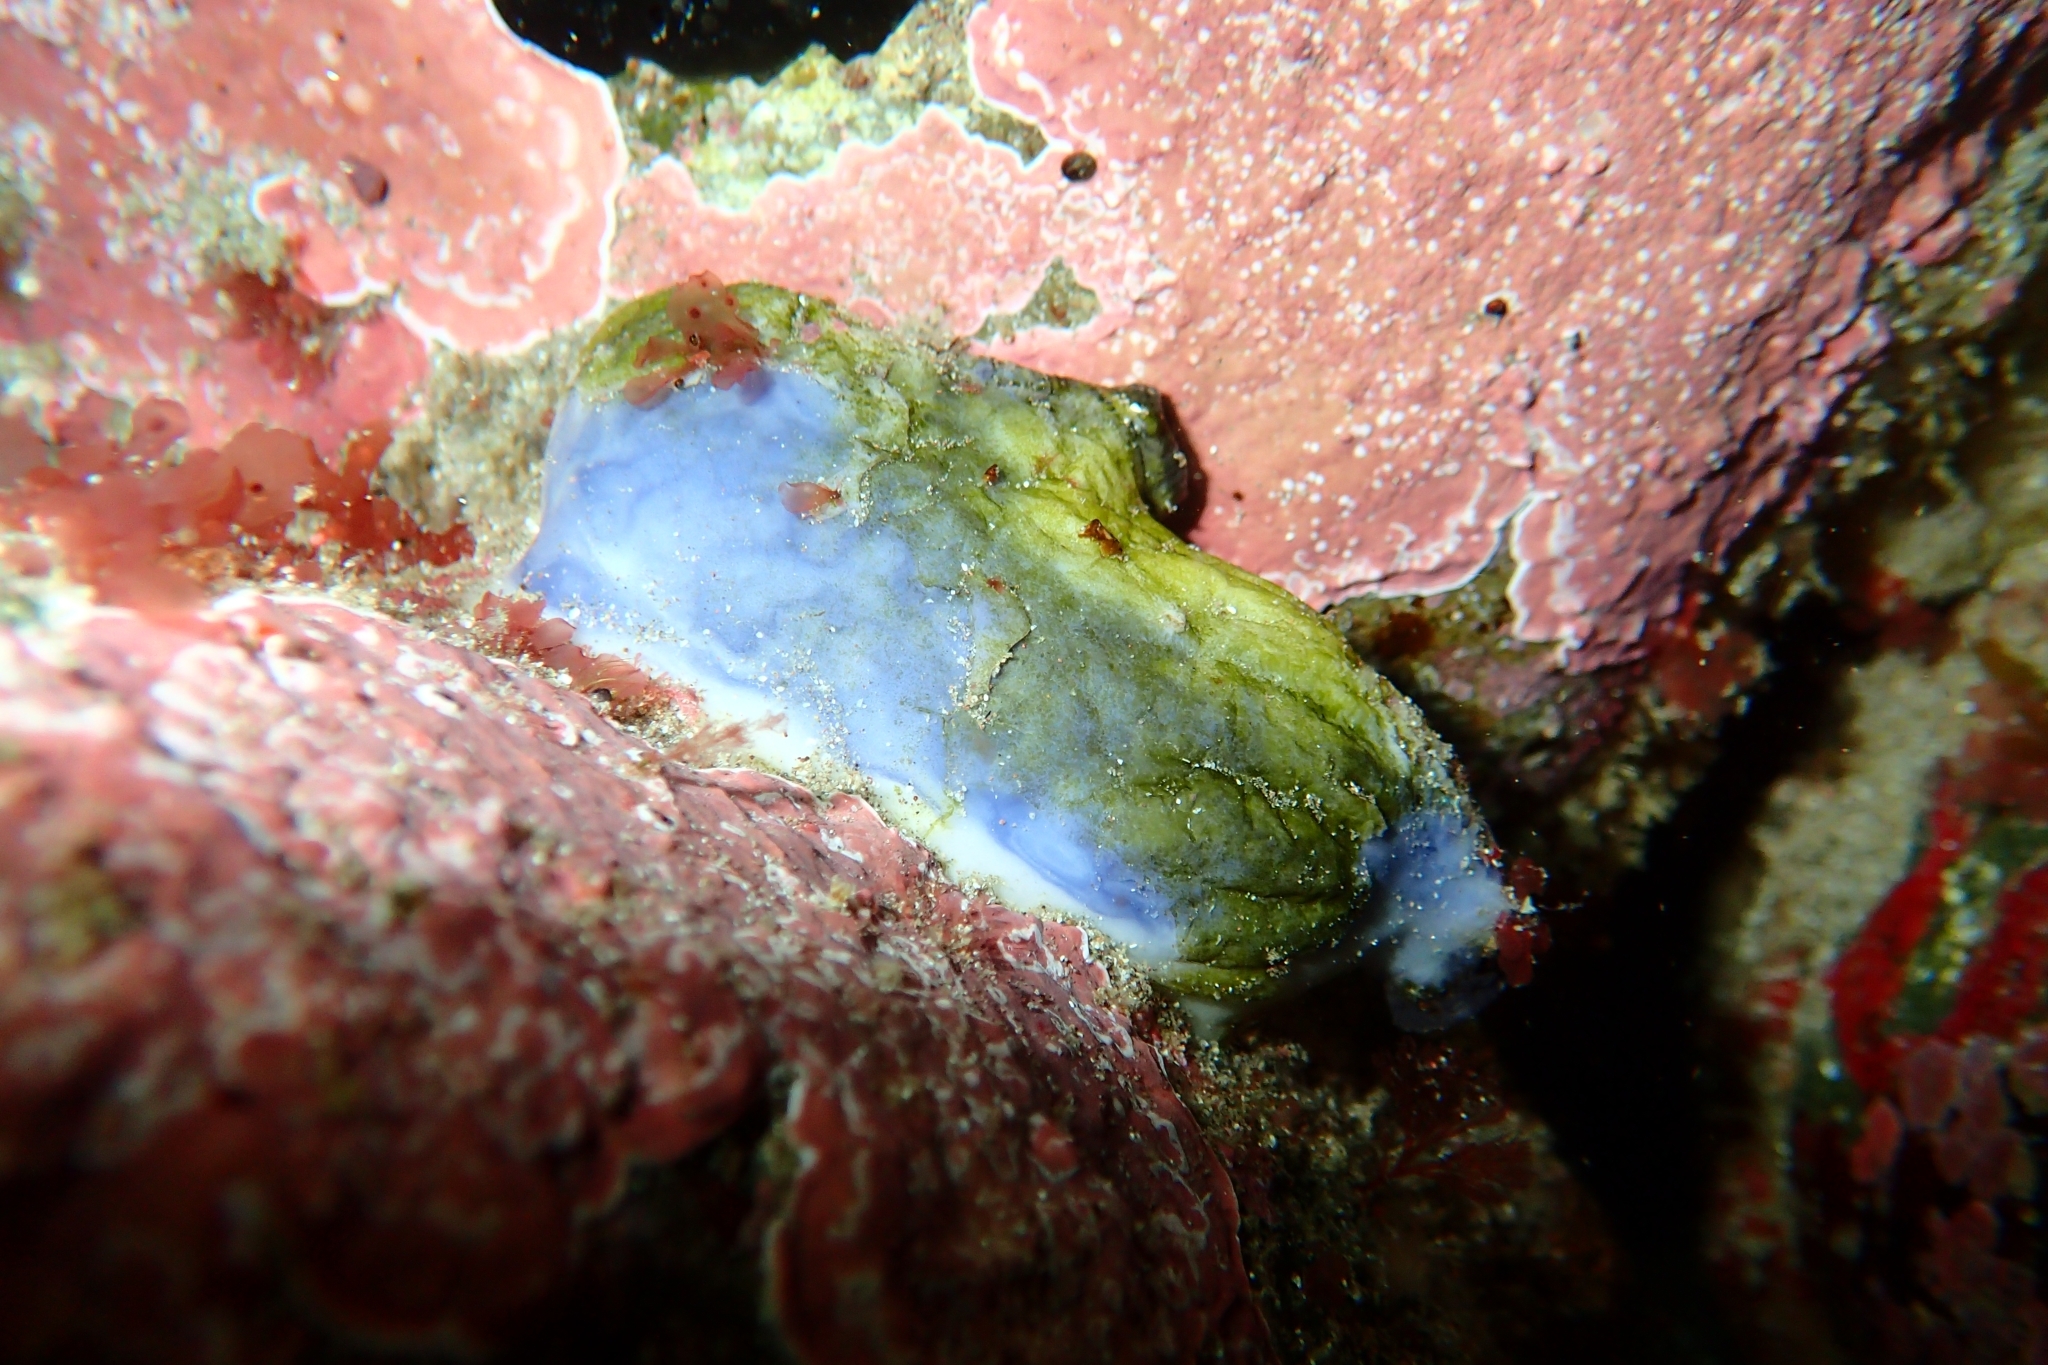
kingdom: Animalia
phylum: Chordata
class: Ascidiacea
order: Stolidobranchia
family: Styelidae
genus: Asterocarpa
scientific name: Asterocarpa coerulea
